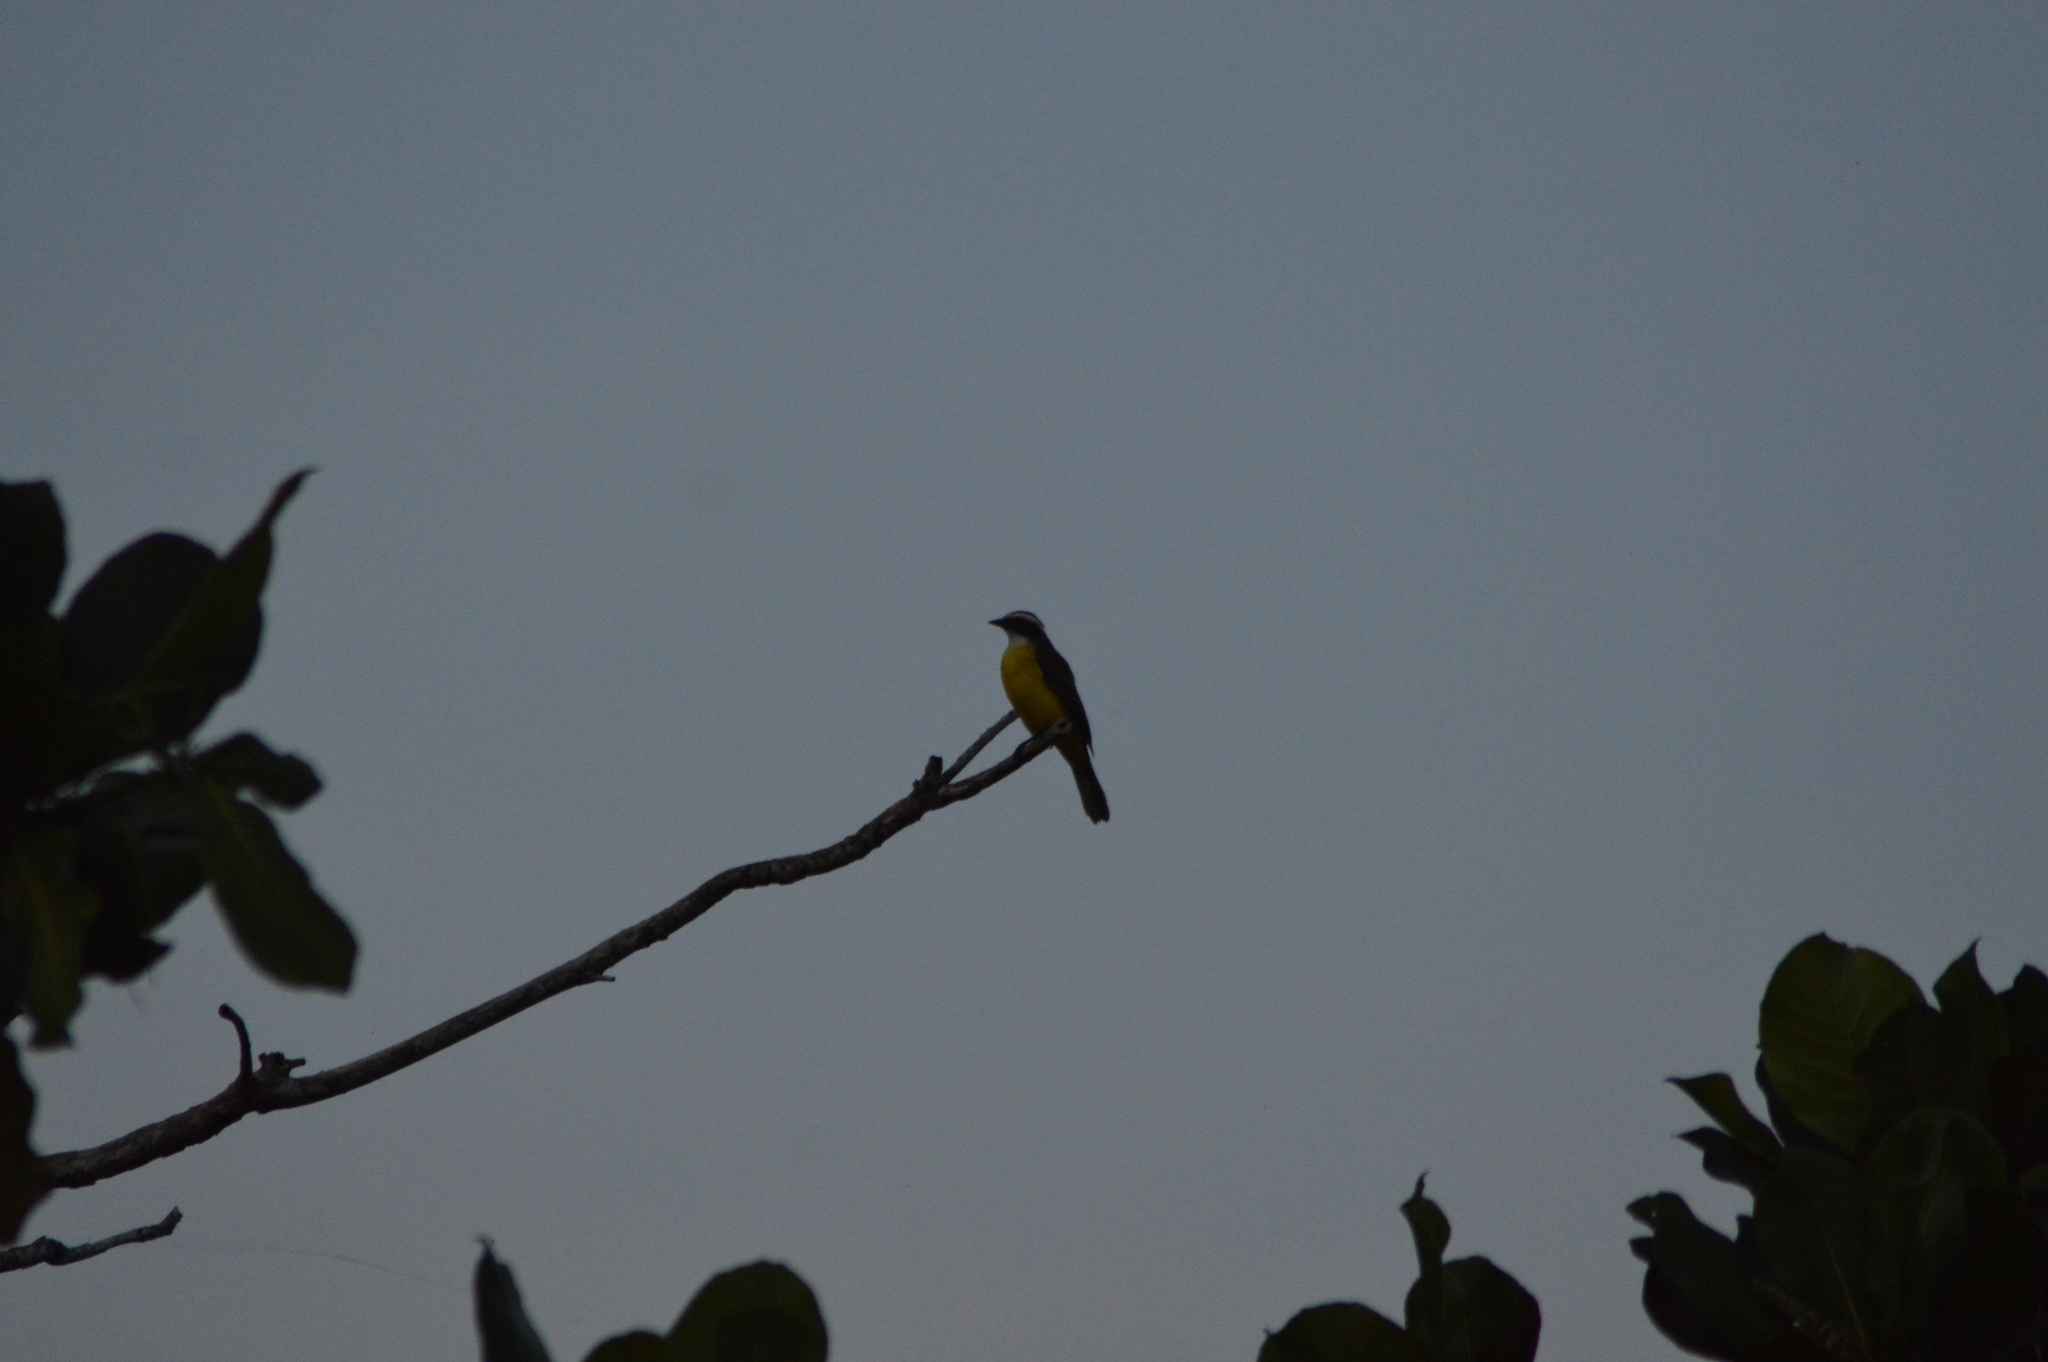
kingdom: Animalia
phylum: Chordata
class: Aves
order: Passeriformes
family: Tyrannidae
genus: Myiozetetes
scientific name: Myiozetetes similis
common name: Social flycatcher
